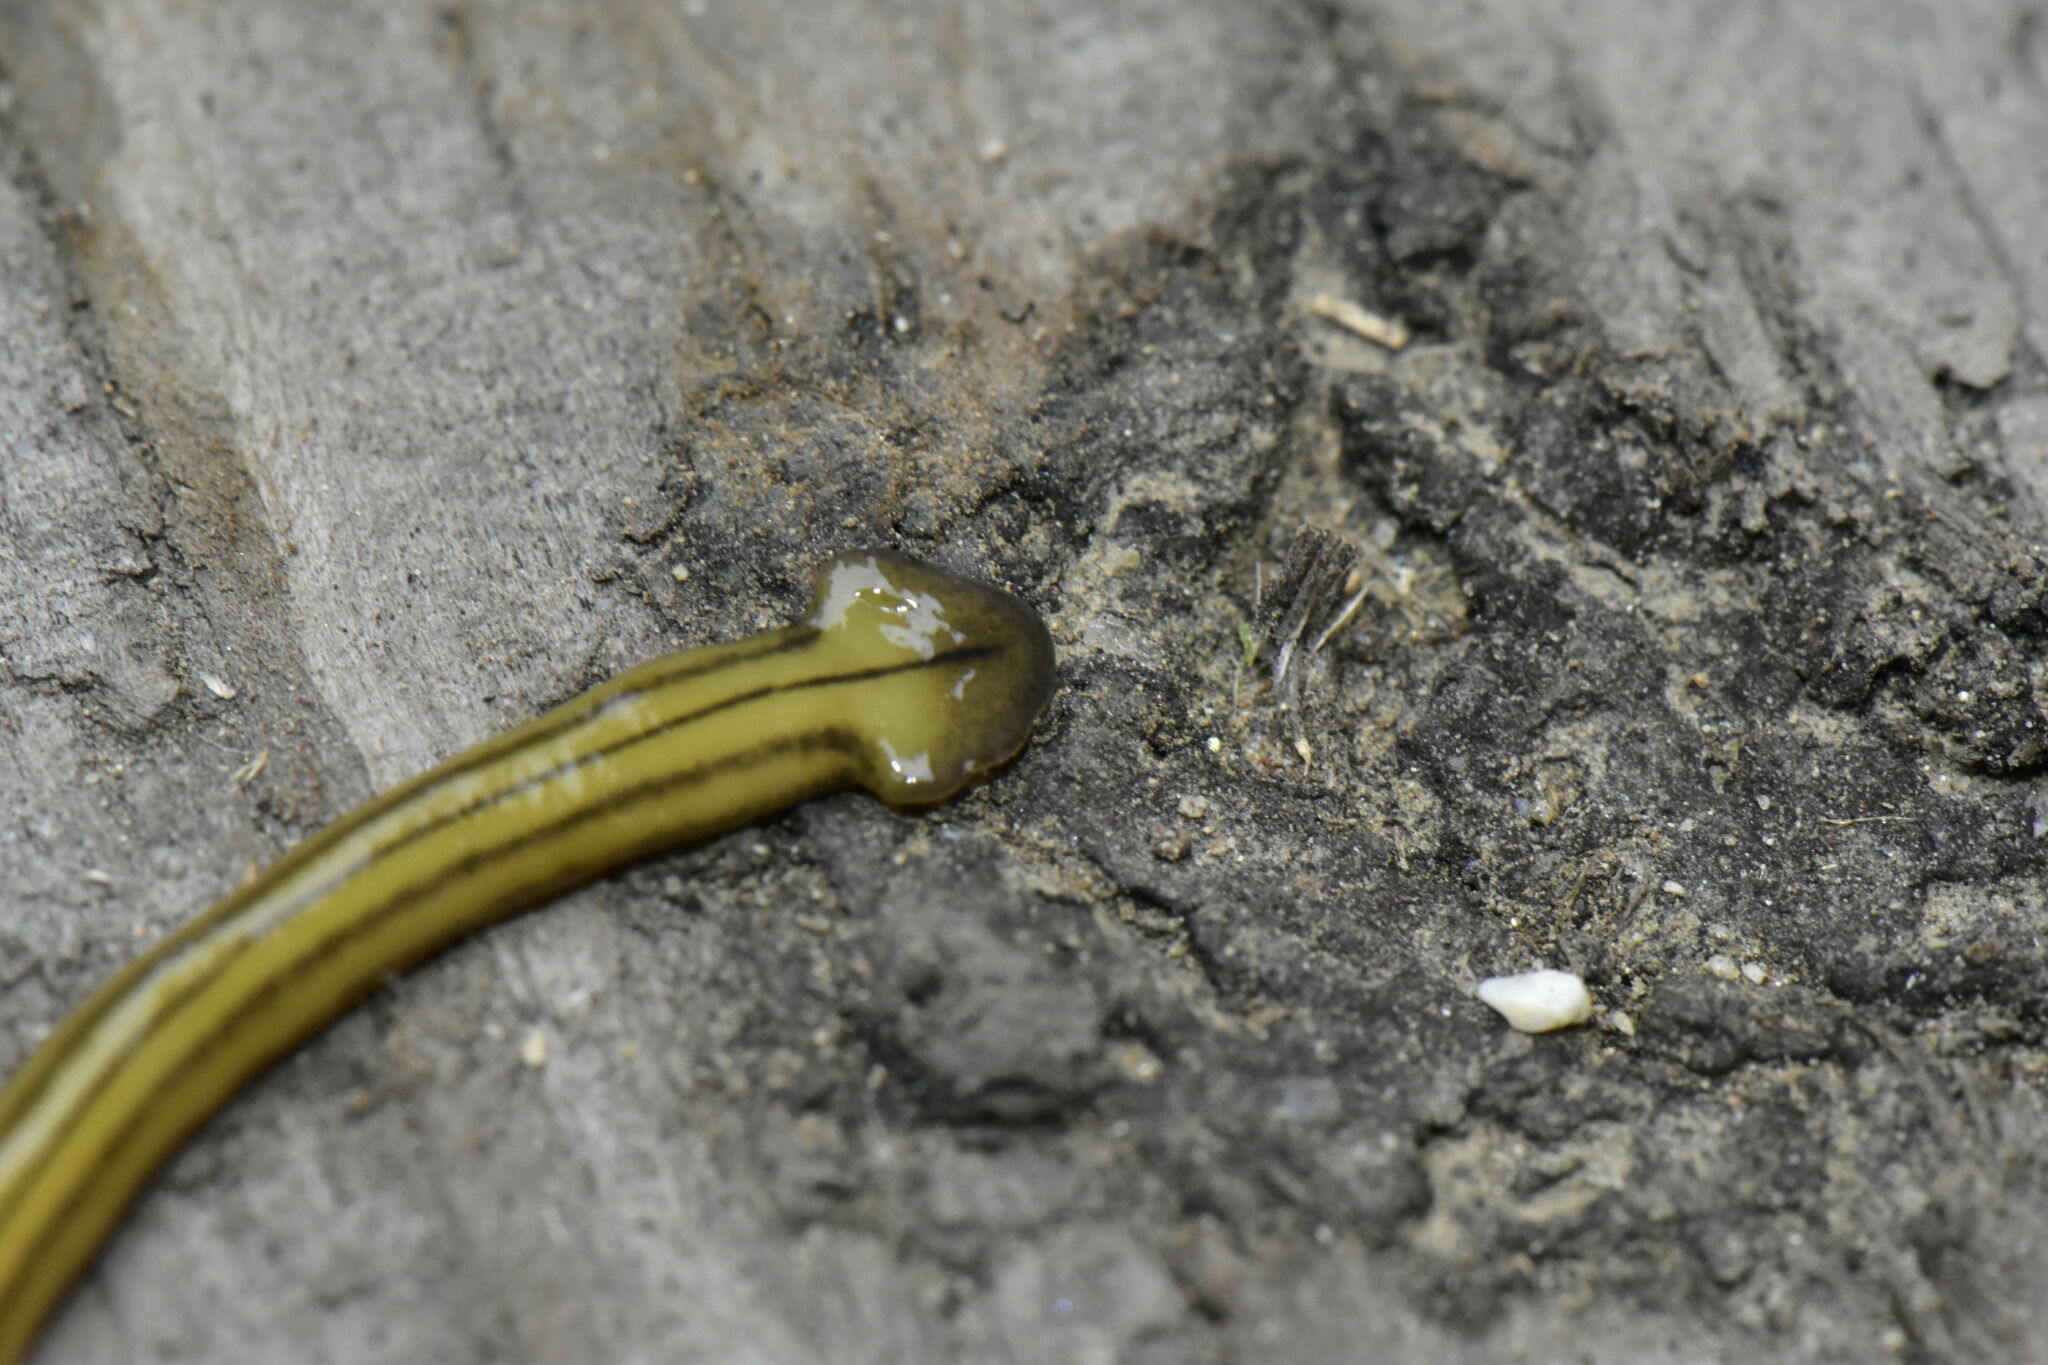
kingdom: Animalia
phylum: Platyhelminthes
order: Tricladida
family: Geoplanidae
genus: Diversibipalium
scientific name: Diversibipalium multilineatum
